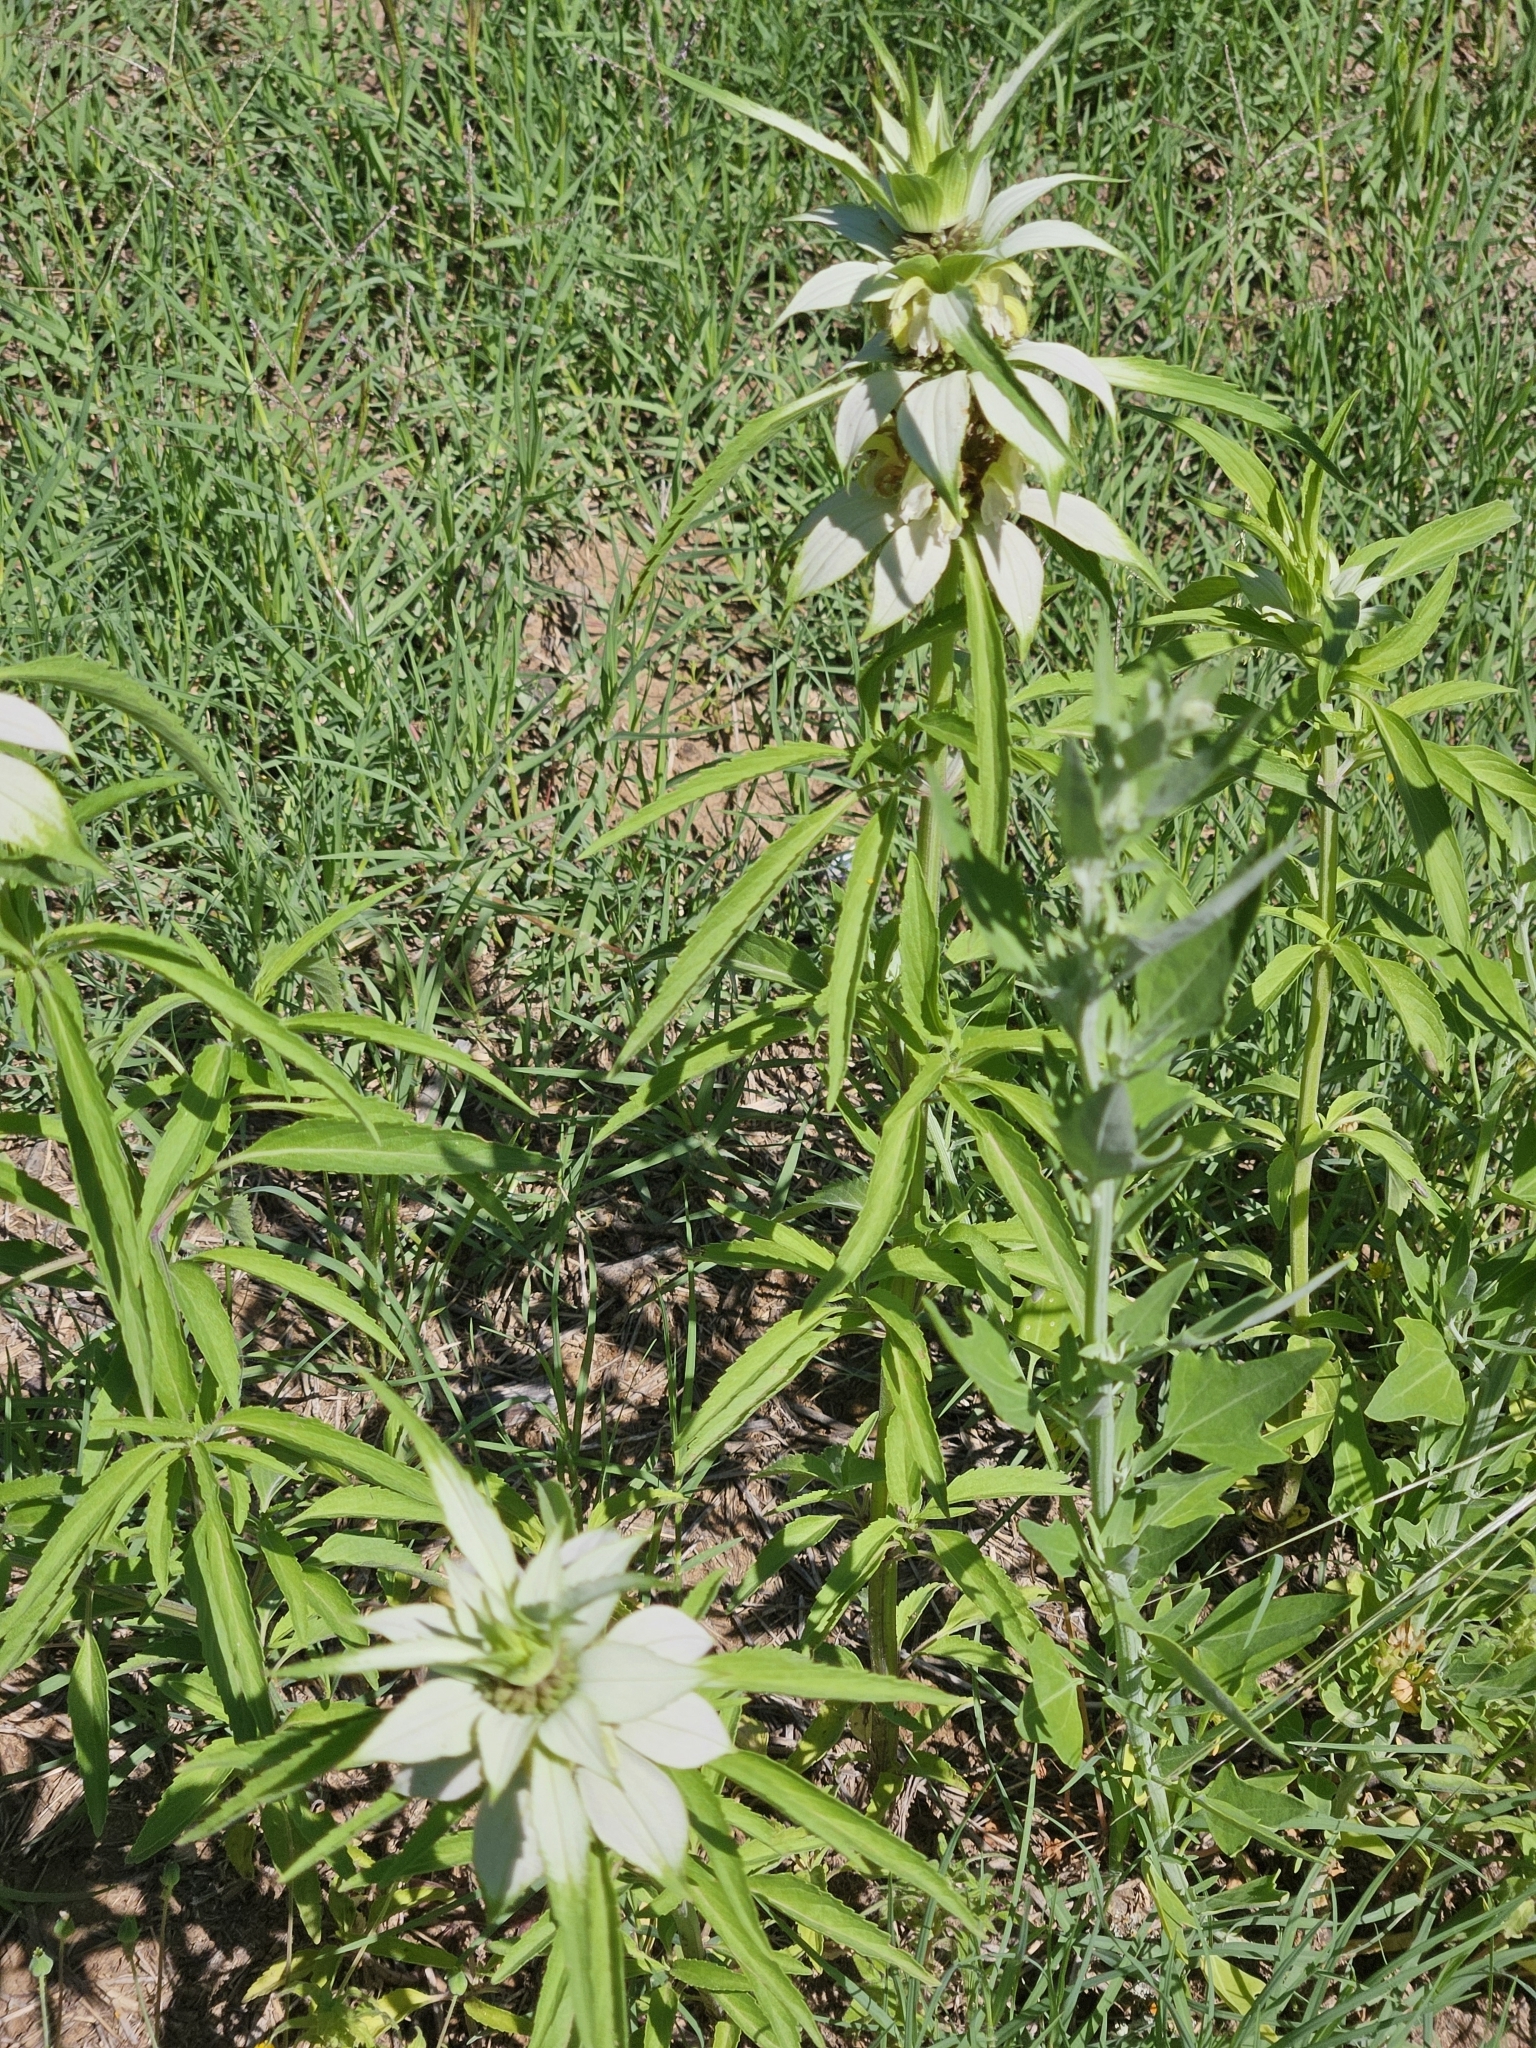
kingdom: Plantae
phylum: Tracheophyta
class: Magnoliopsida
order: Lamiales
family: Lamiaceae
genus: Monarda
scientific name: Monarda punctata
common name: Dotted monarda
